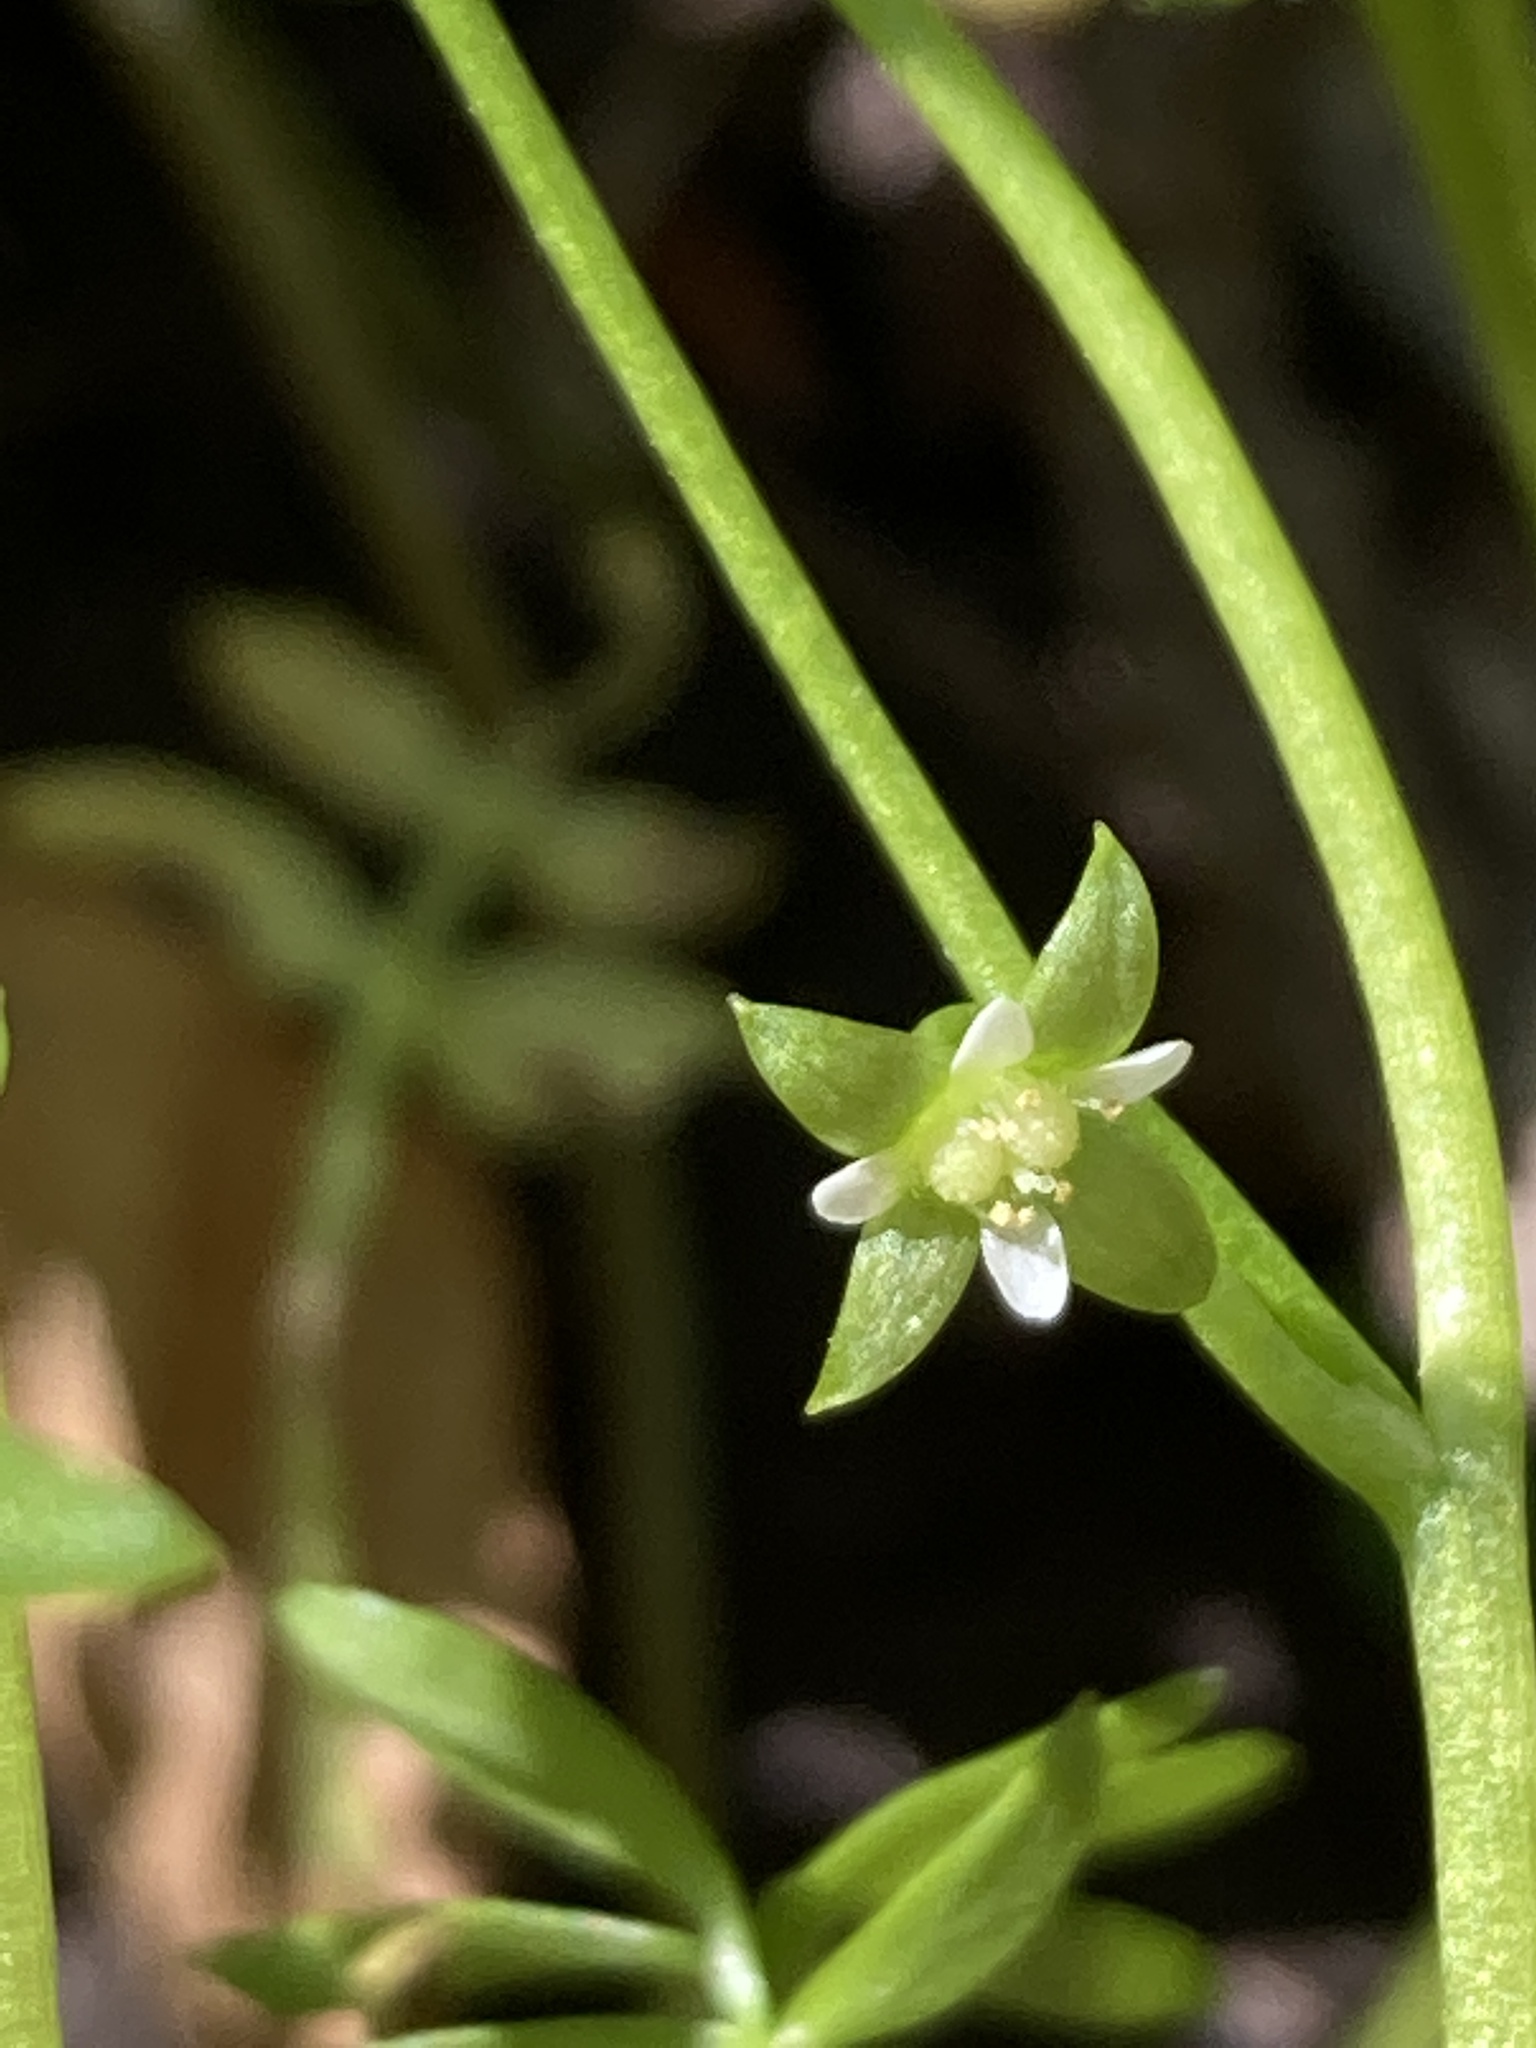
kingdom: Plantae
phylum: Tracheophyta
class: Magnoliopsida
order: Brassicales
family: Limnanthaceae
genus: Floerkea
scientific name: Floerkea proserpinacoides
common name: False mermaid
